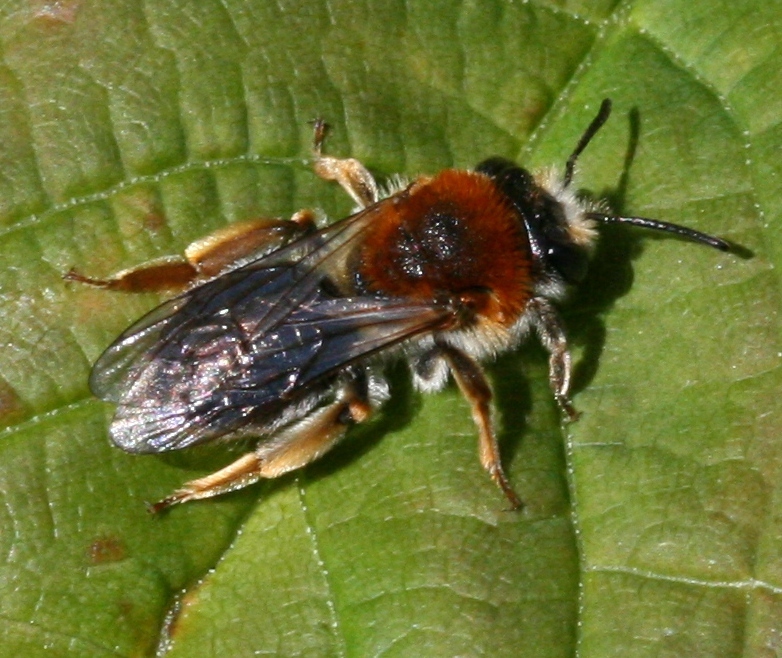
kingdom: Animalia
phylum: Arthropoda
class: Insecta
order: Hymenoptera
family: Andrenidae
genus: Andrena
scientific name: Andrena haemorrhoa
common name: Early mining bee
